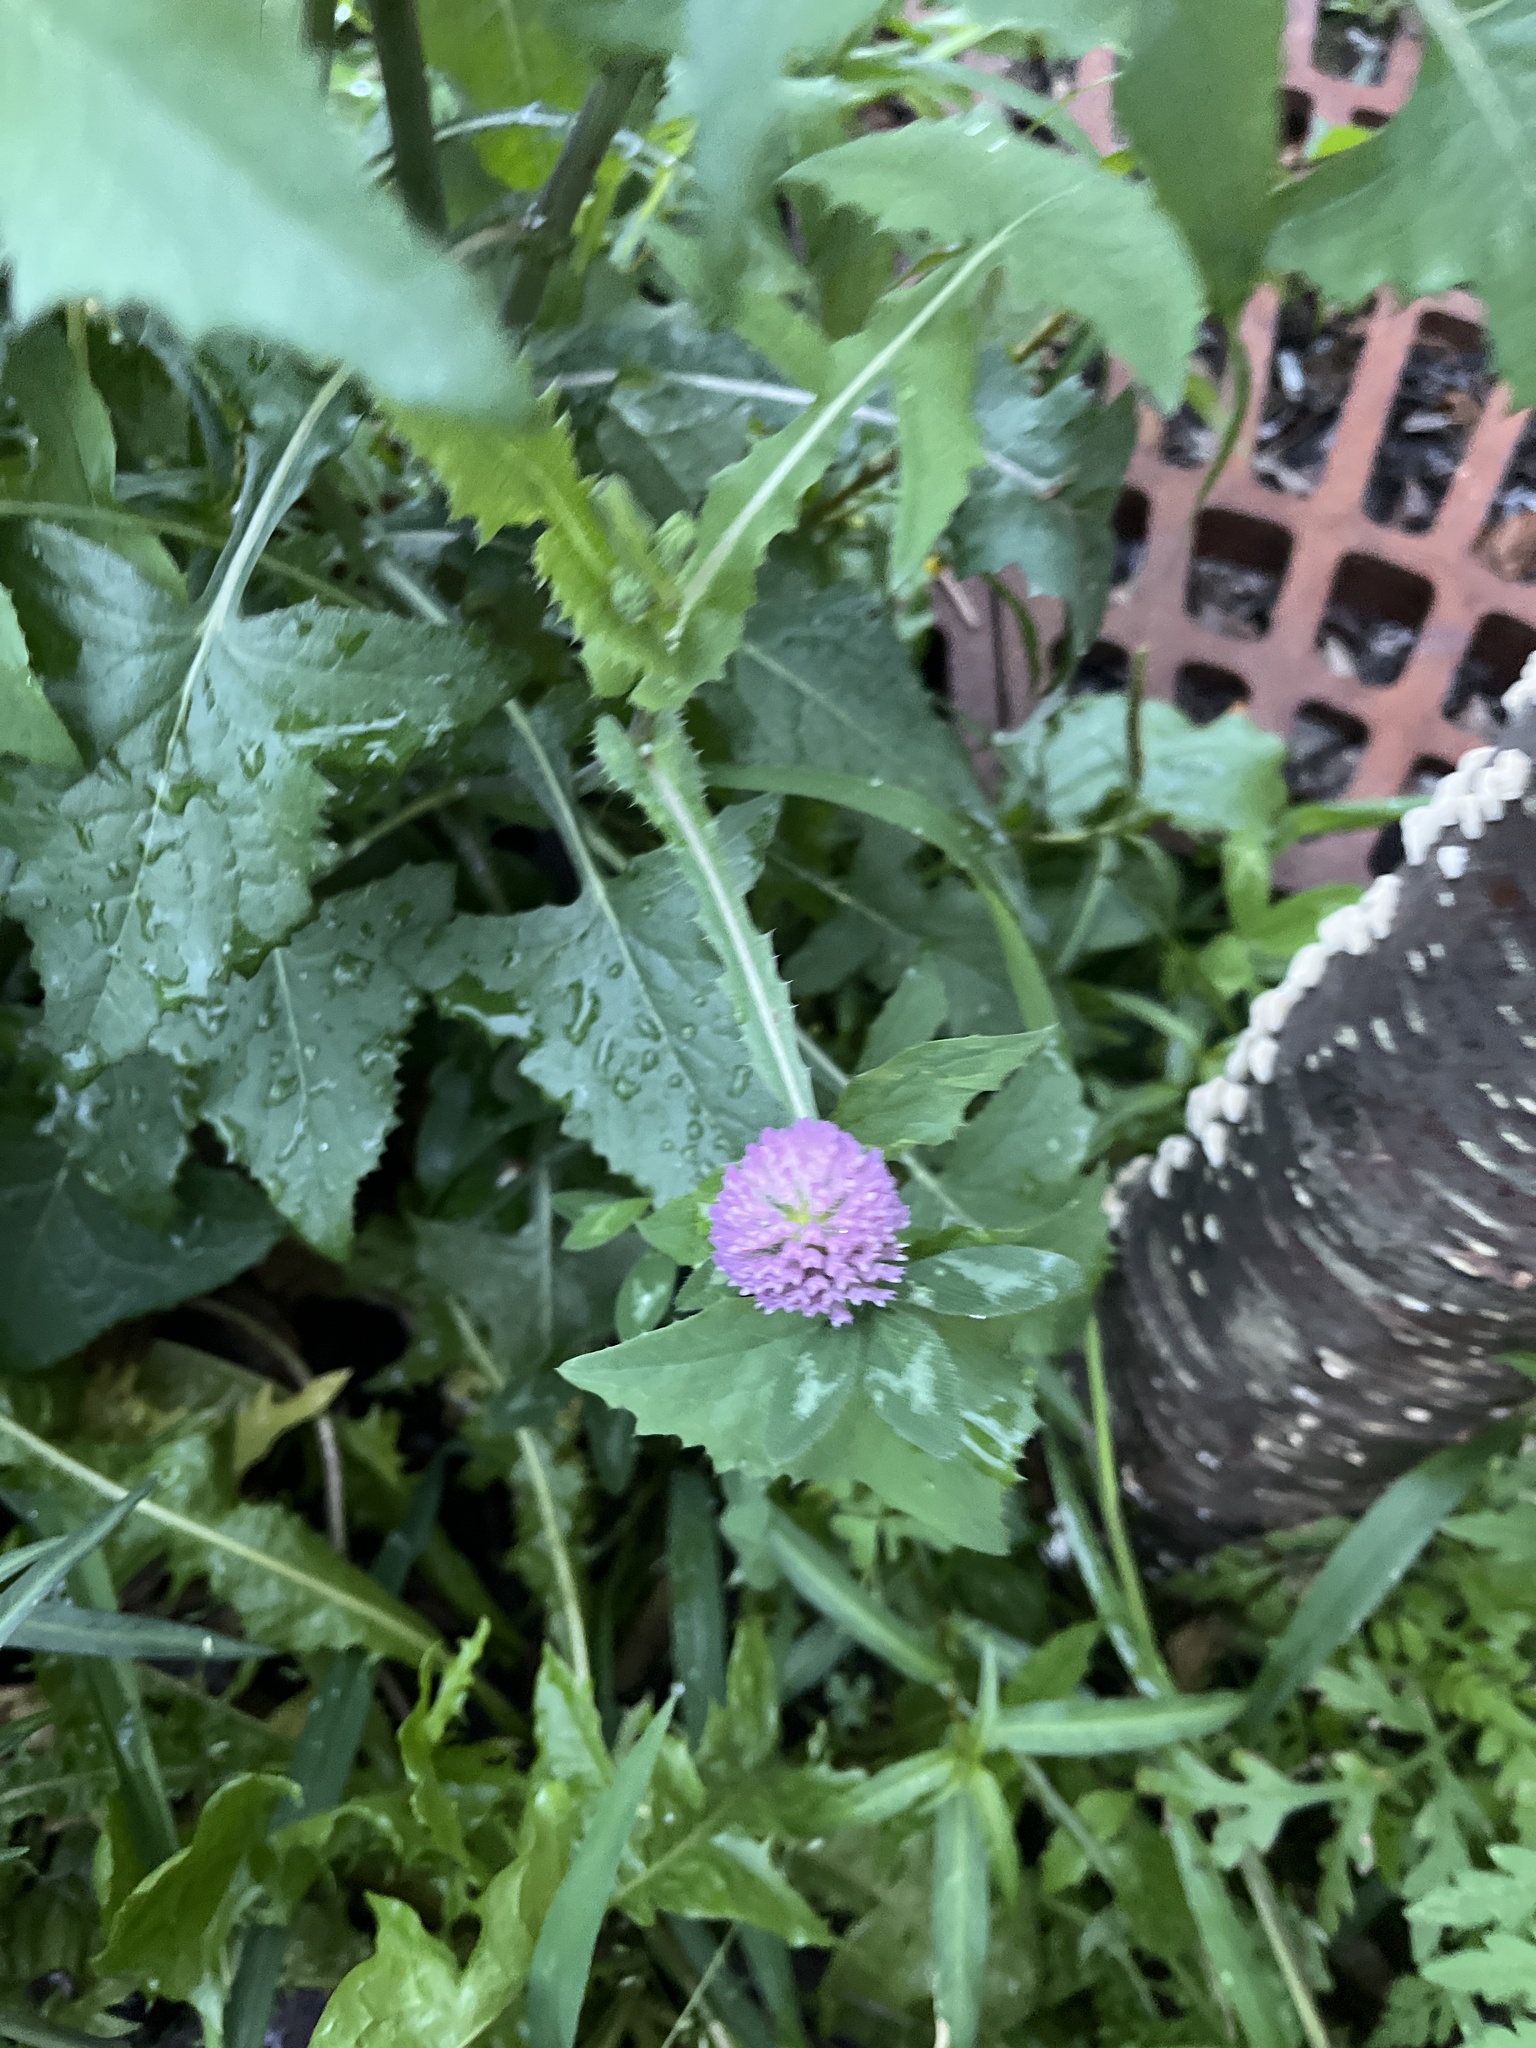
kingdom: Plantae
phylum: Tracheophyta
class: Magnoliopsida
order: Fabales
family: Fabaceae
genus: Trifolium
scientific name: Trifolium pratense
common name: Red clover
